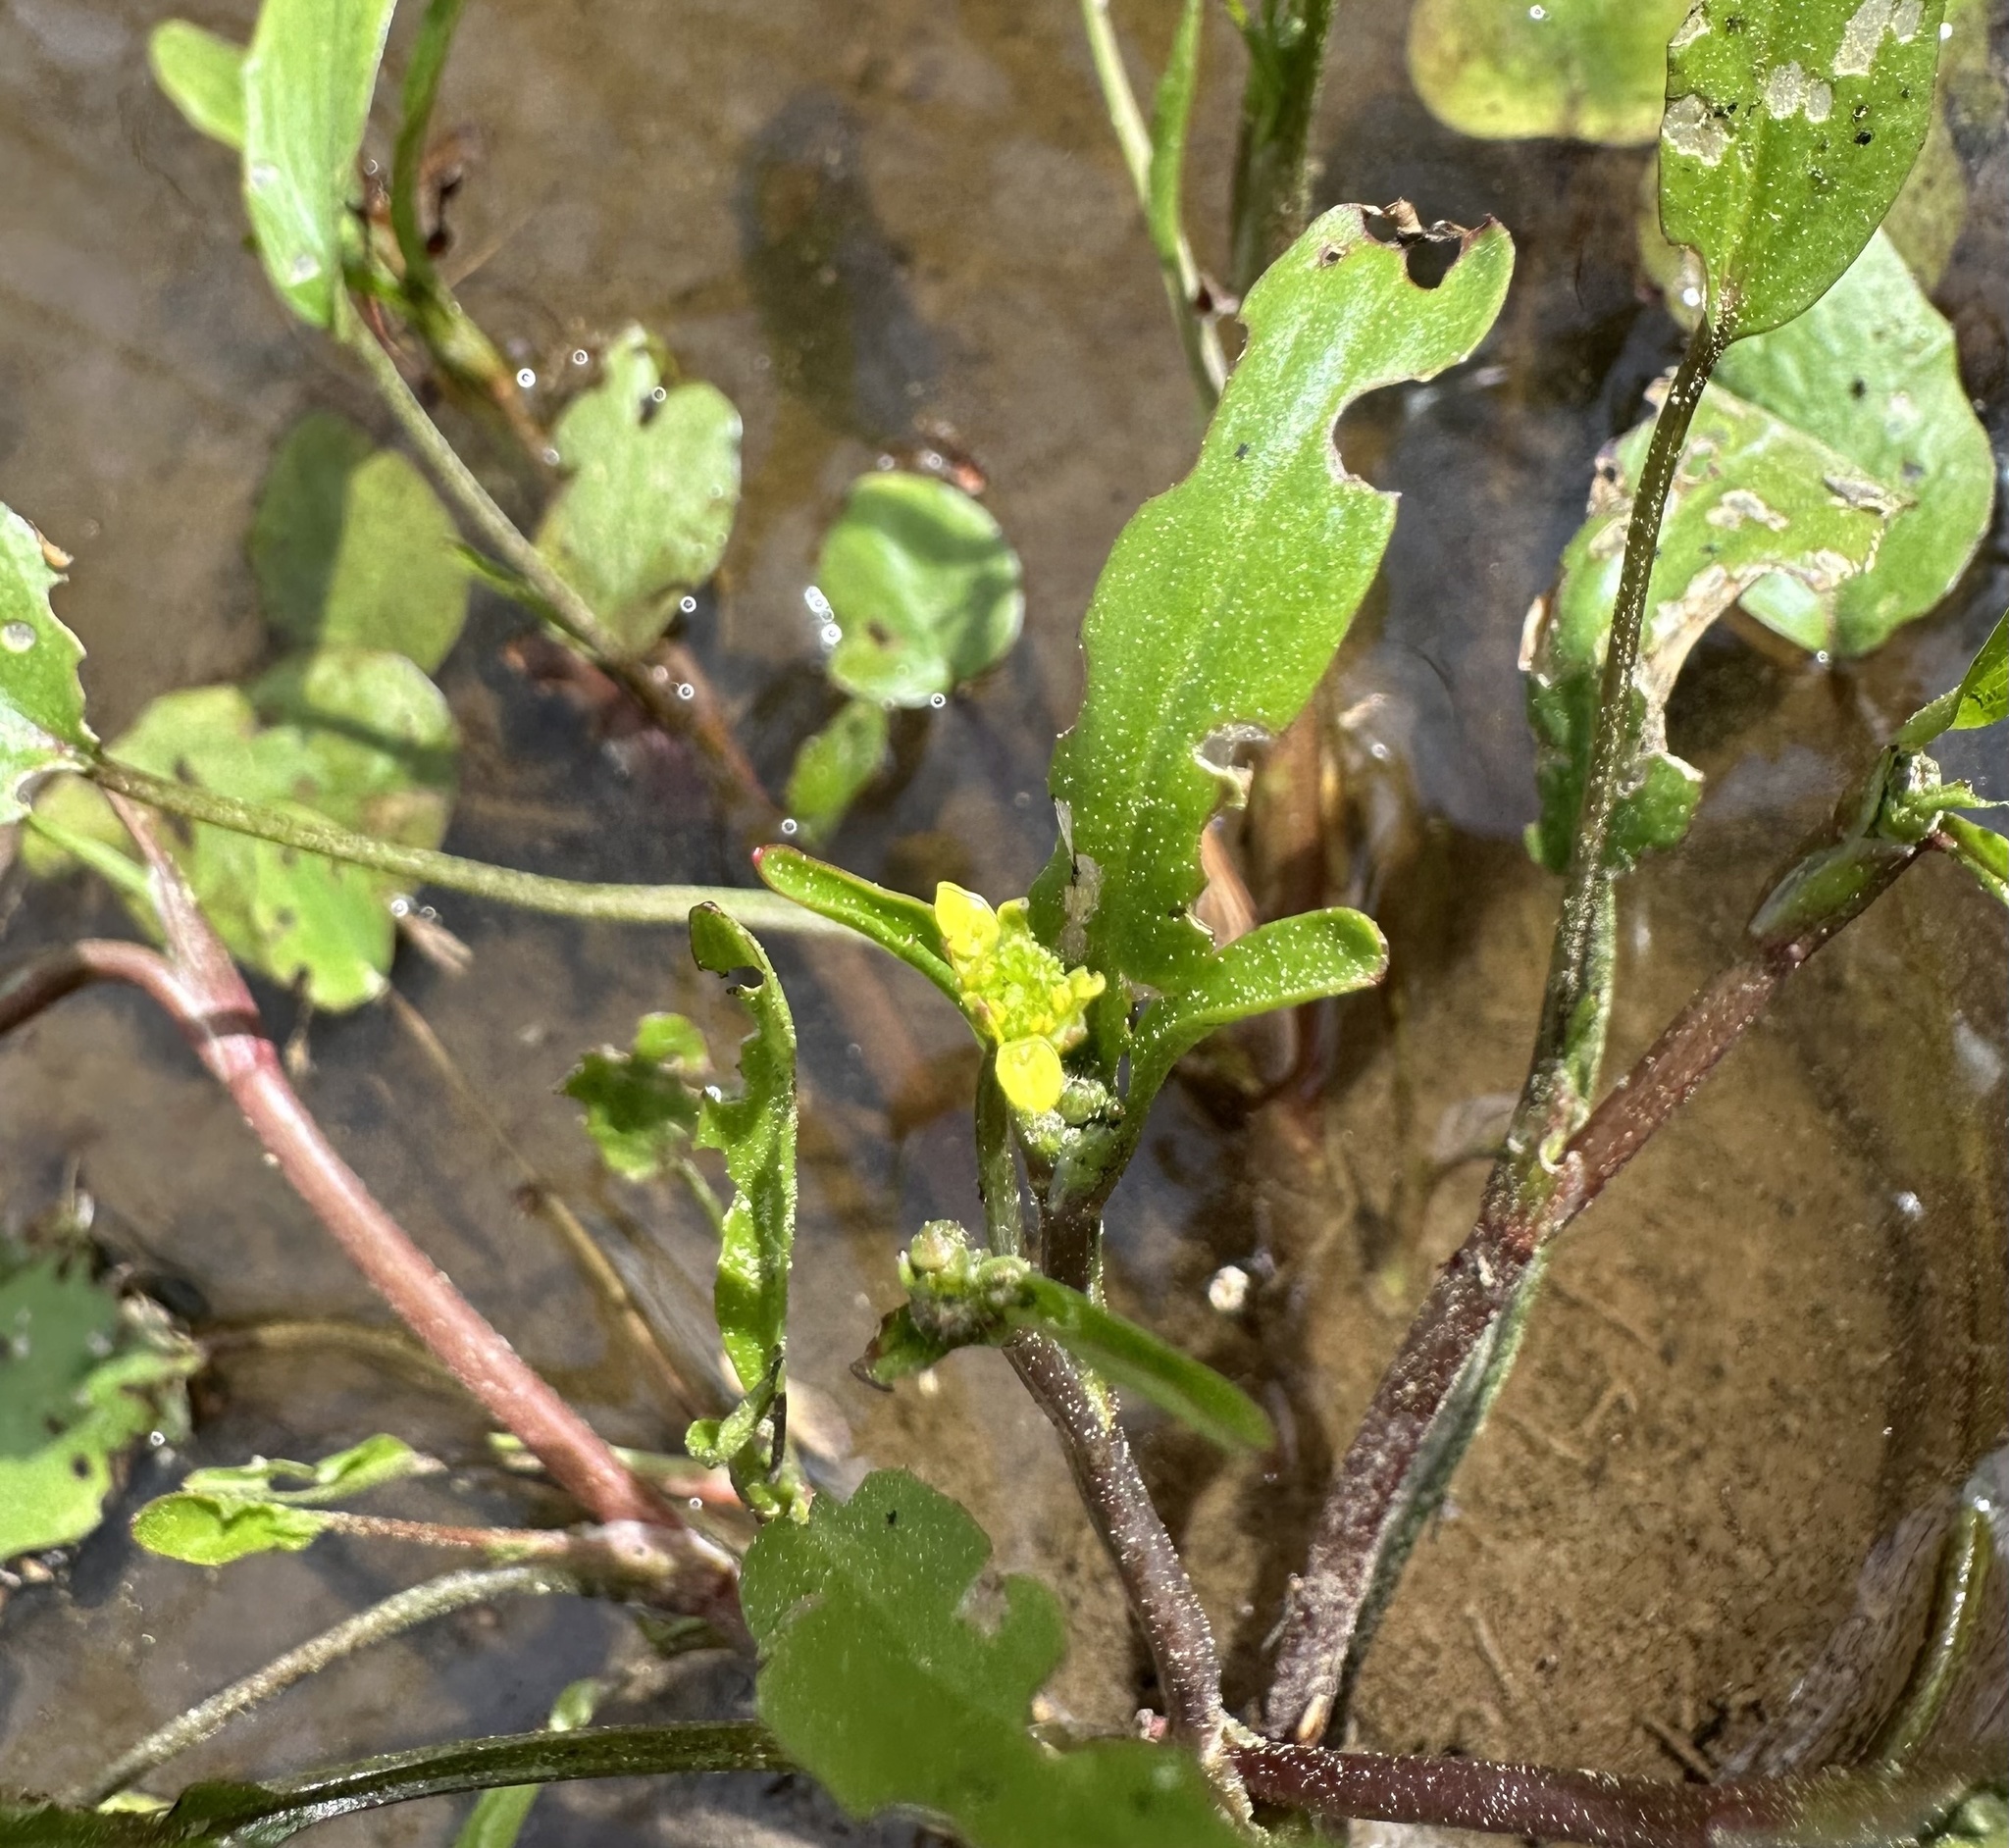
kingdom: Plantae
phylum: Tracheophyta
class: Magnoliopsida
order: Ranunculales
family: Ranunculaceae
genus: Ranunculus
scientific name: Ranunculus pusillus
